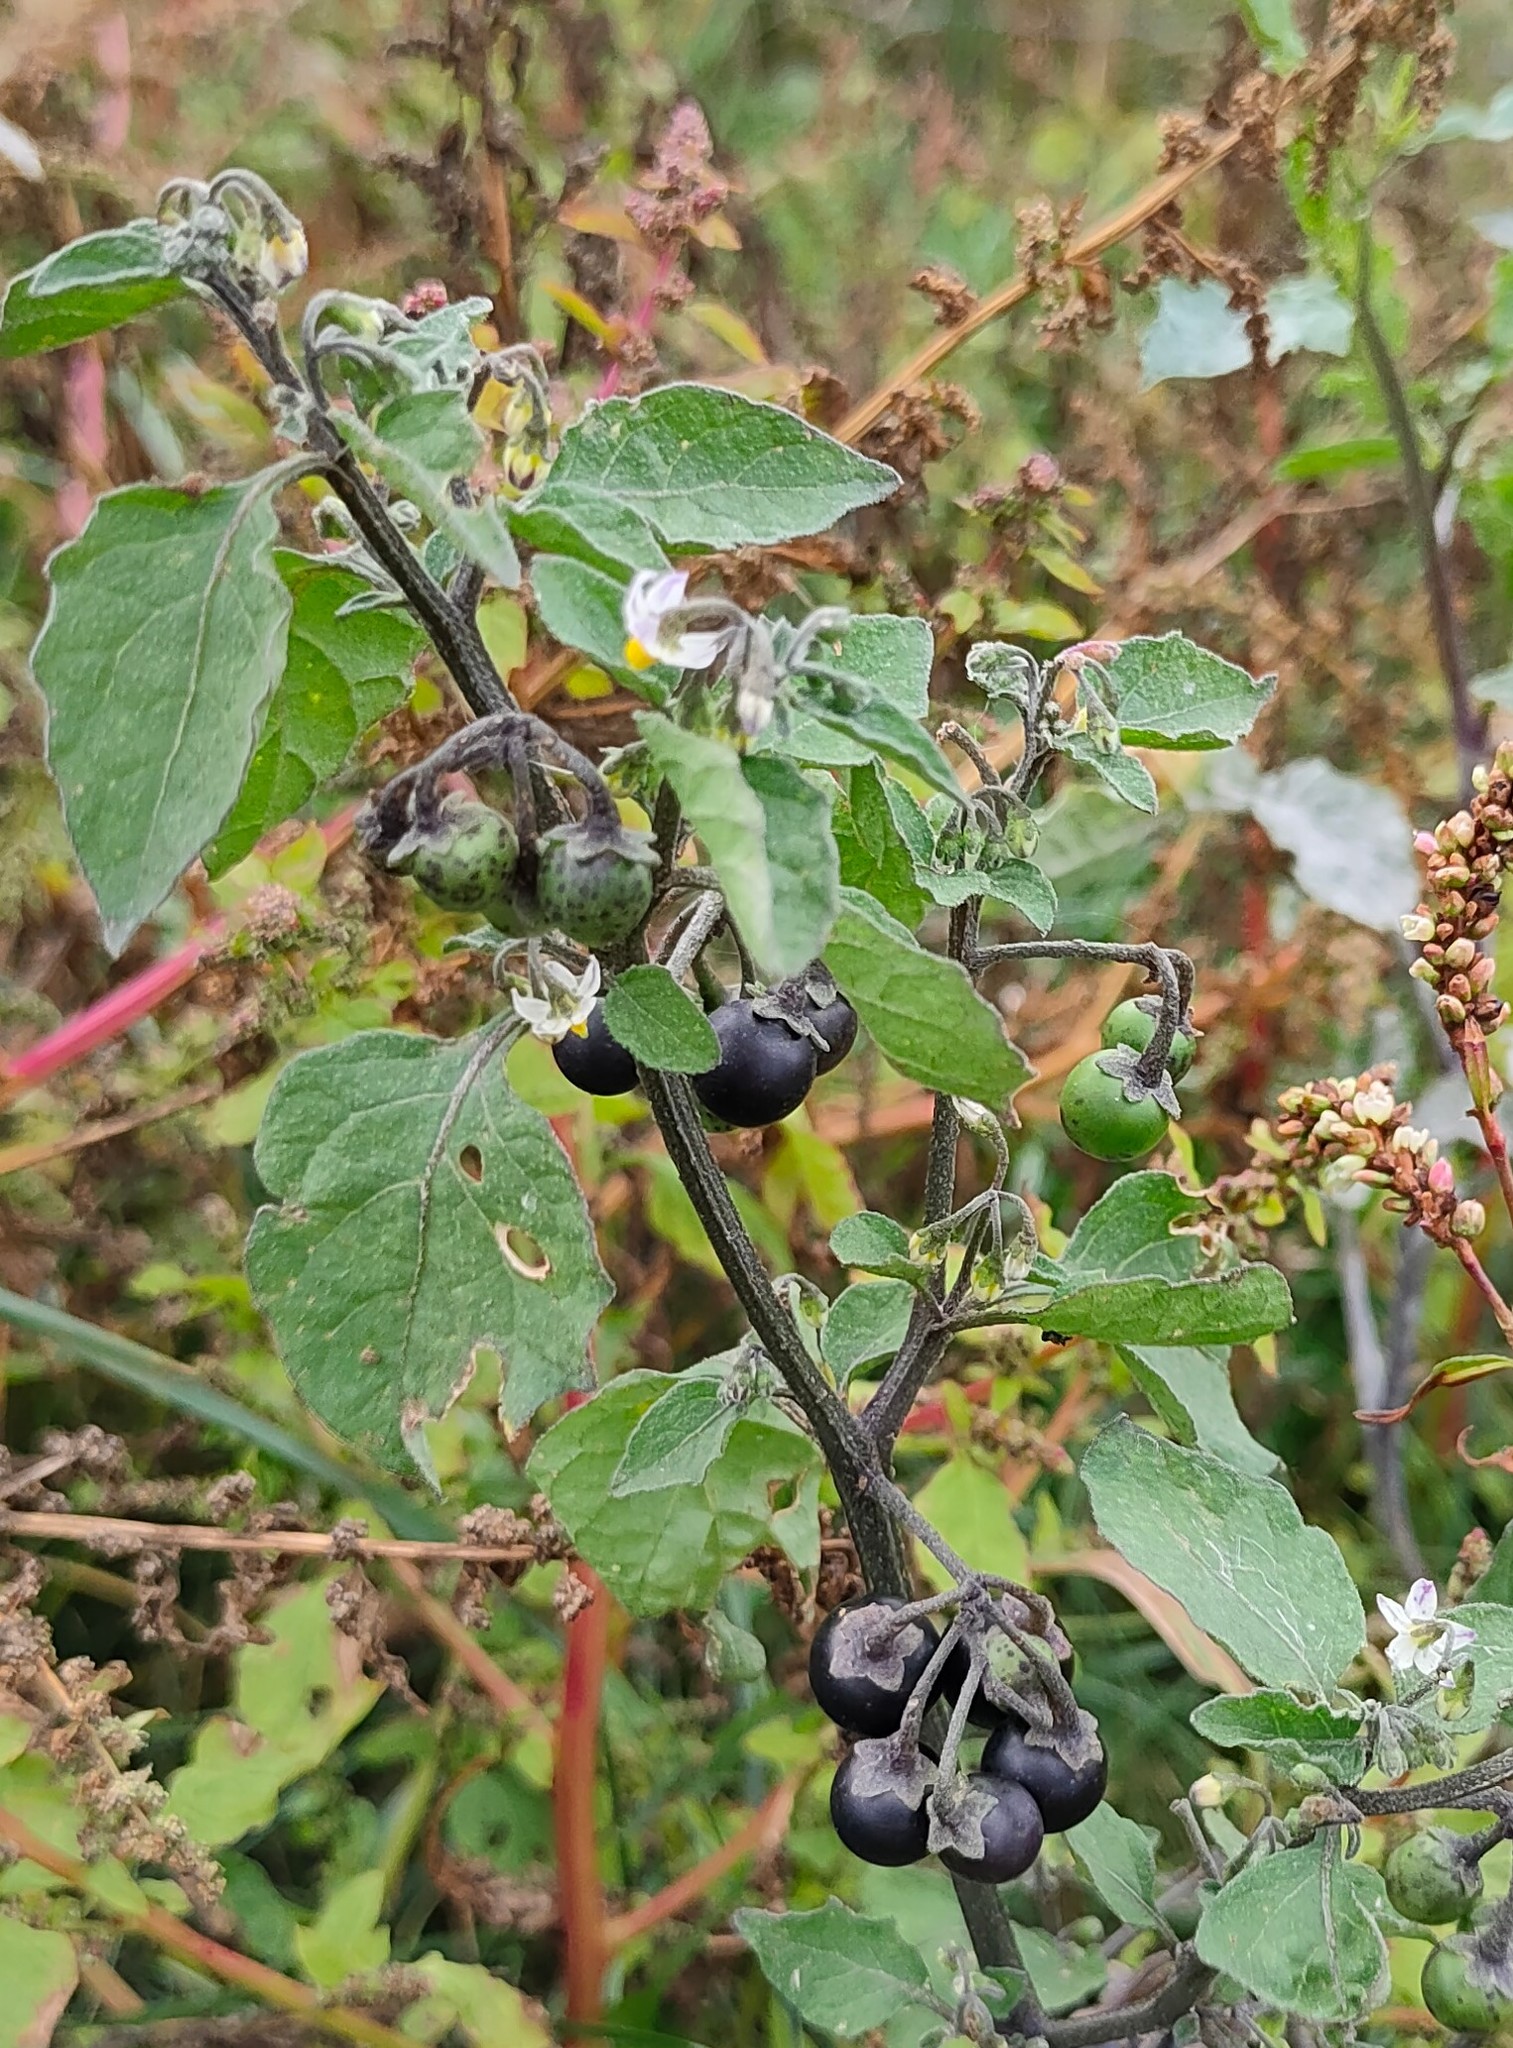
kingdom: Plantae
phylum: Tracheophyta
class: Magnoliopsida
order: Solanales
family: Solanaceae
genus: Solanum
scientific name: Solanum nigrum
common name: Black nightshade
